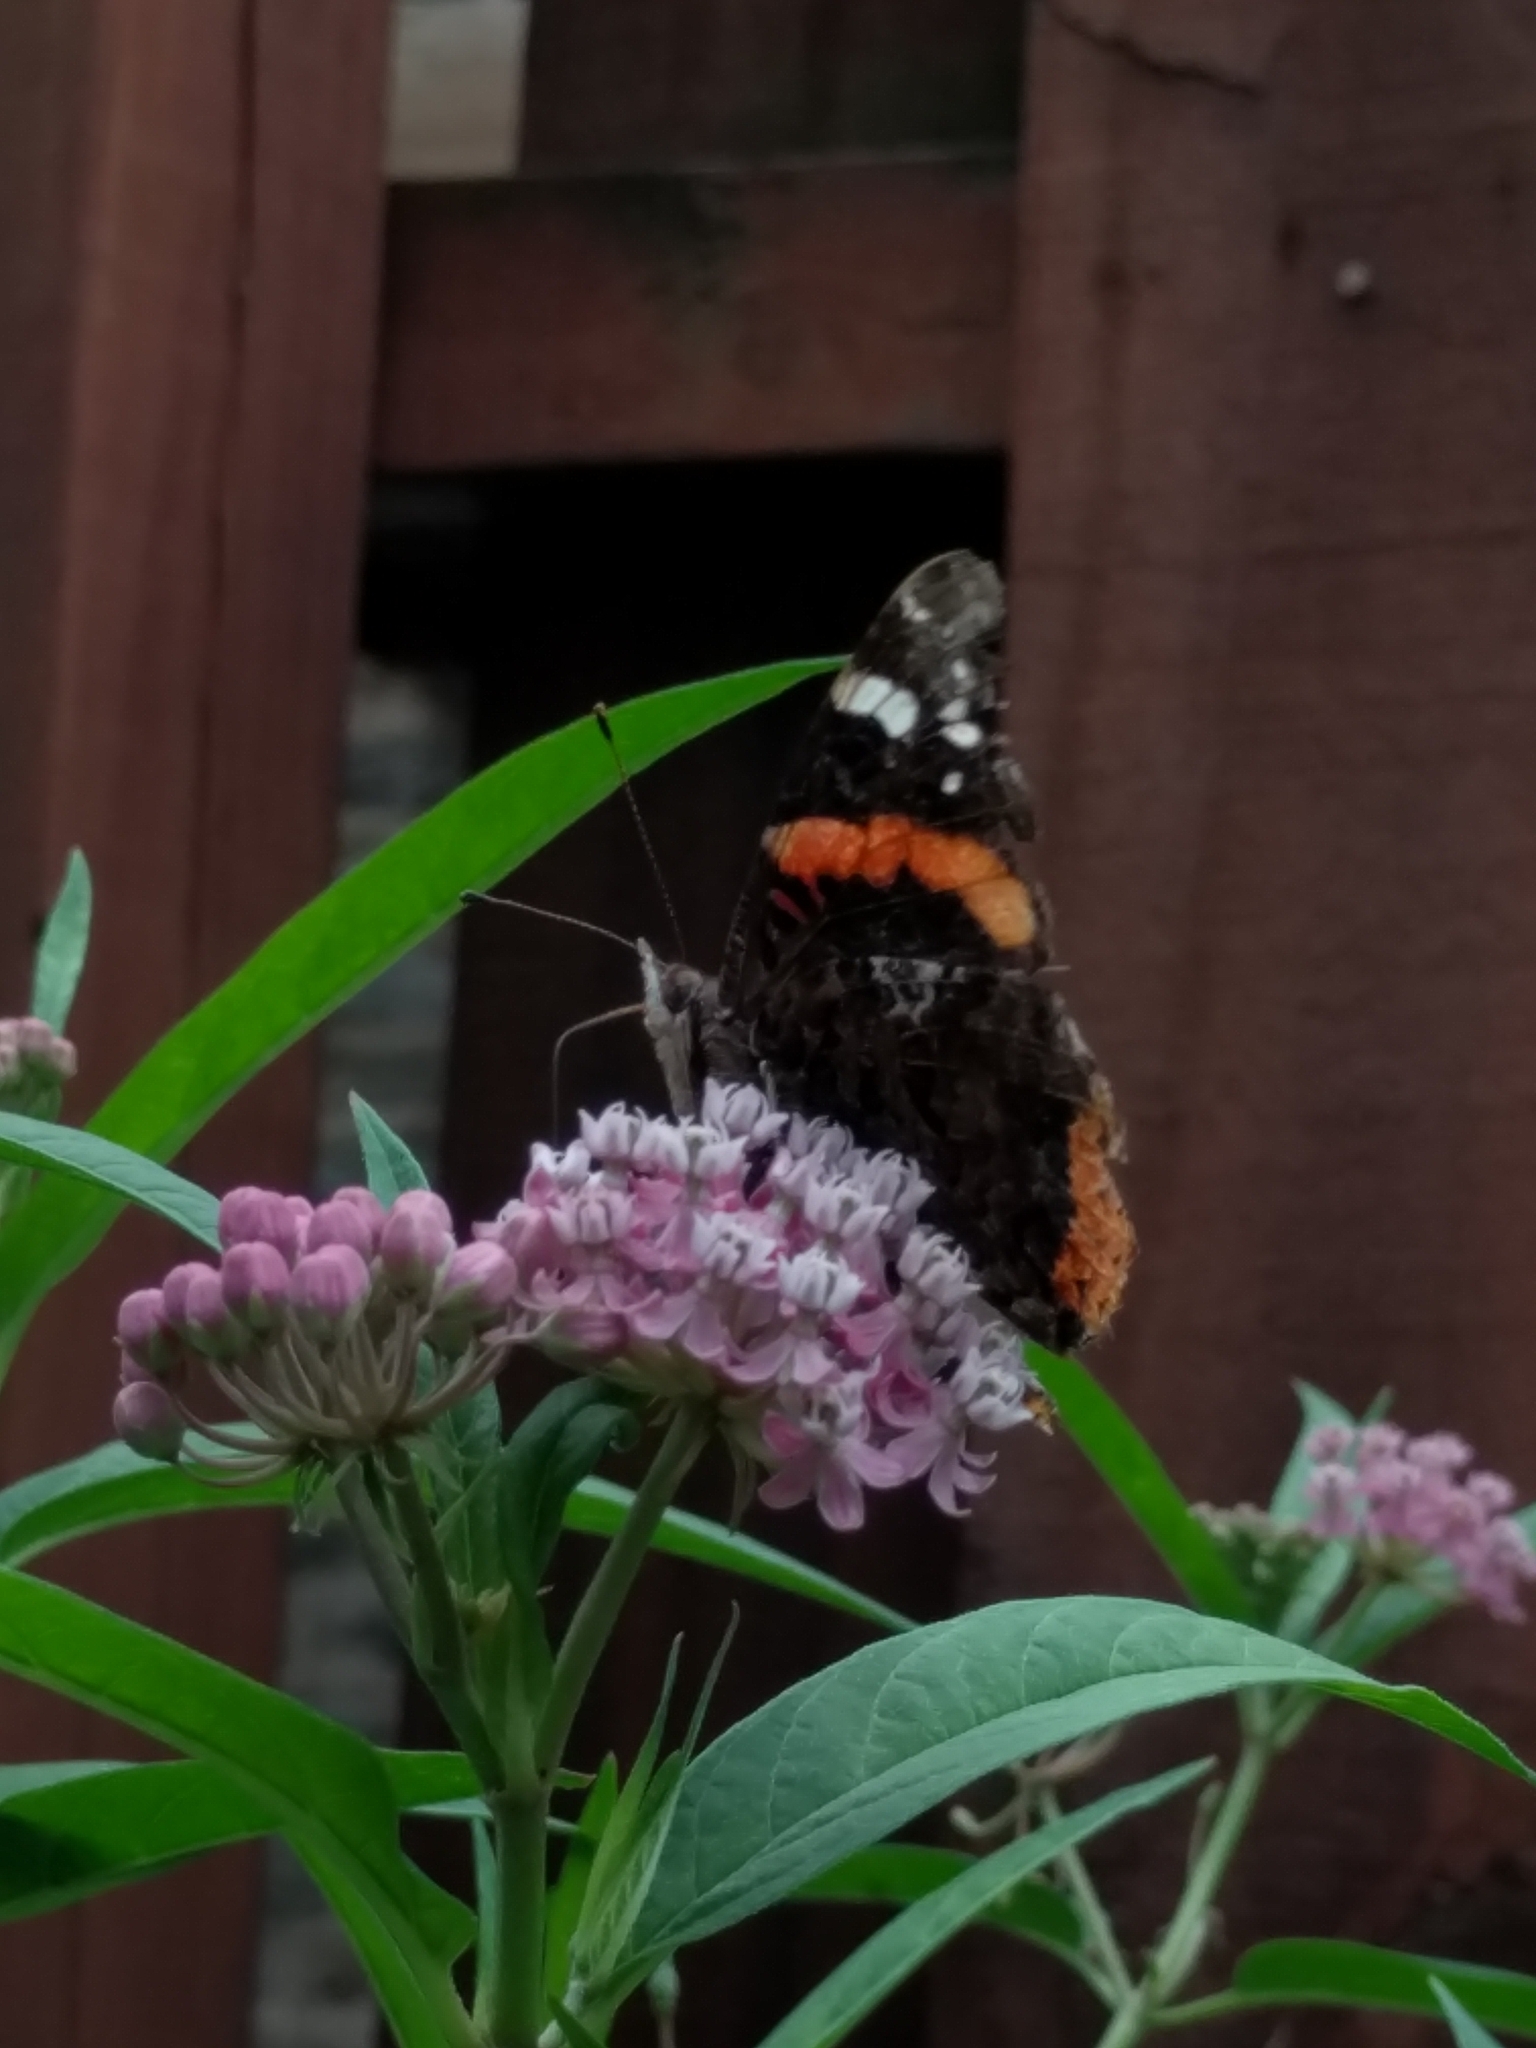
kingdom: Animalia
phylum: Arthropoda
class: Insecta
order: Lepidoptera
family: Nymphalidae
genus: Vanessa
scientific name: Vanessa atalanta
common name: Red admiral
